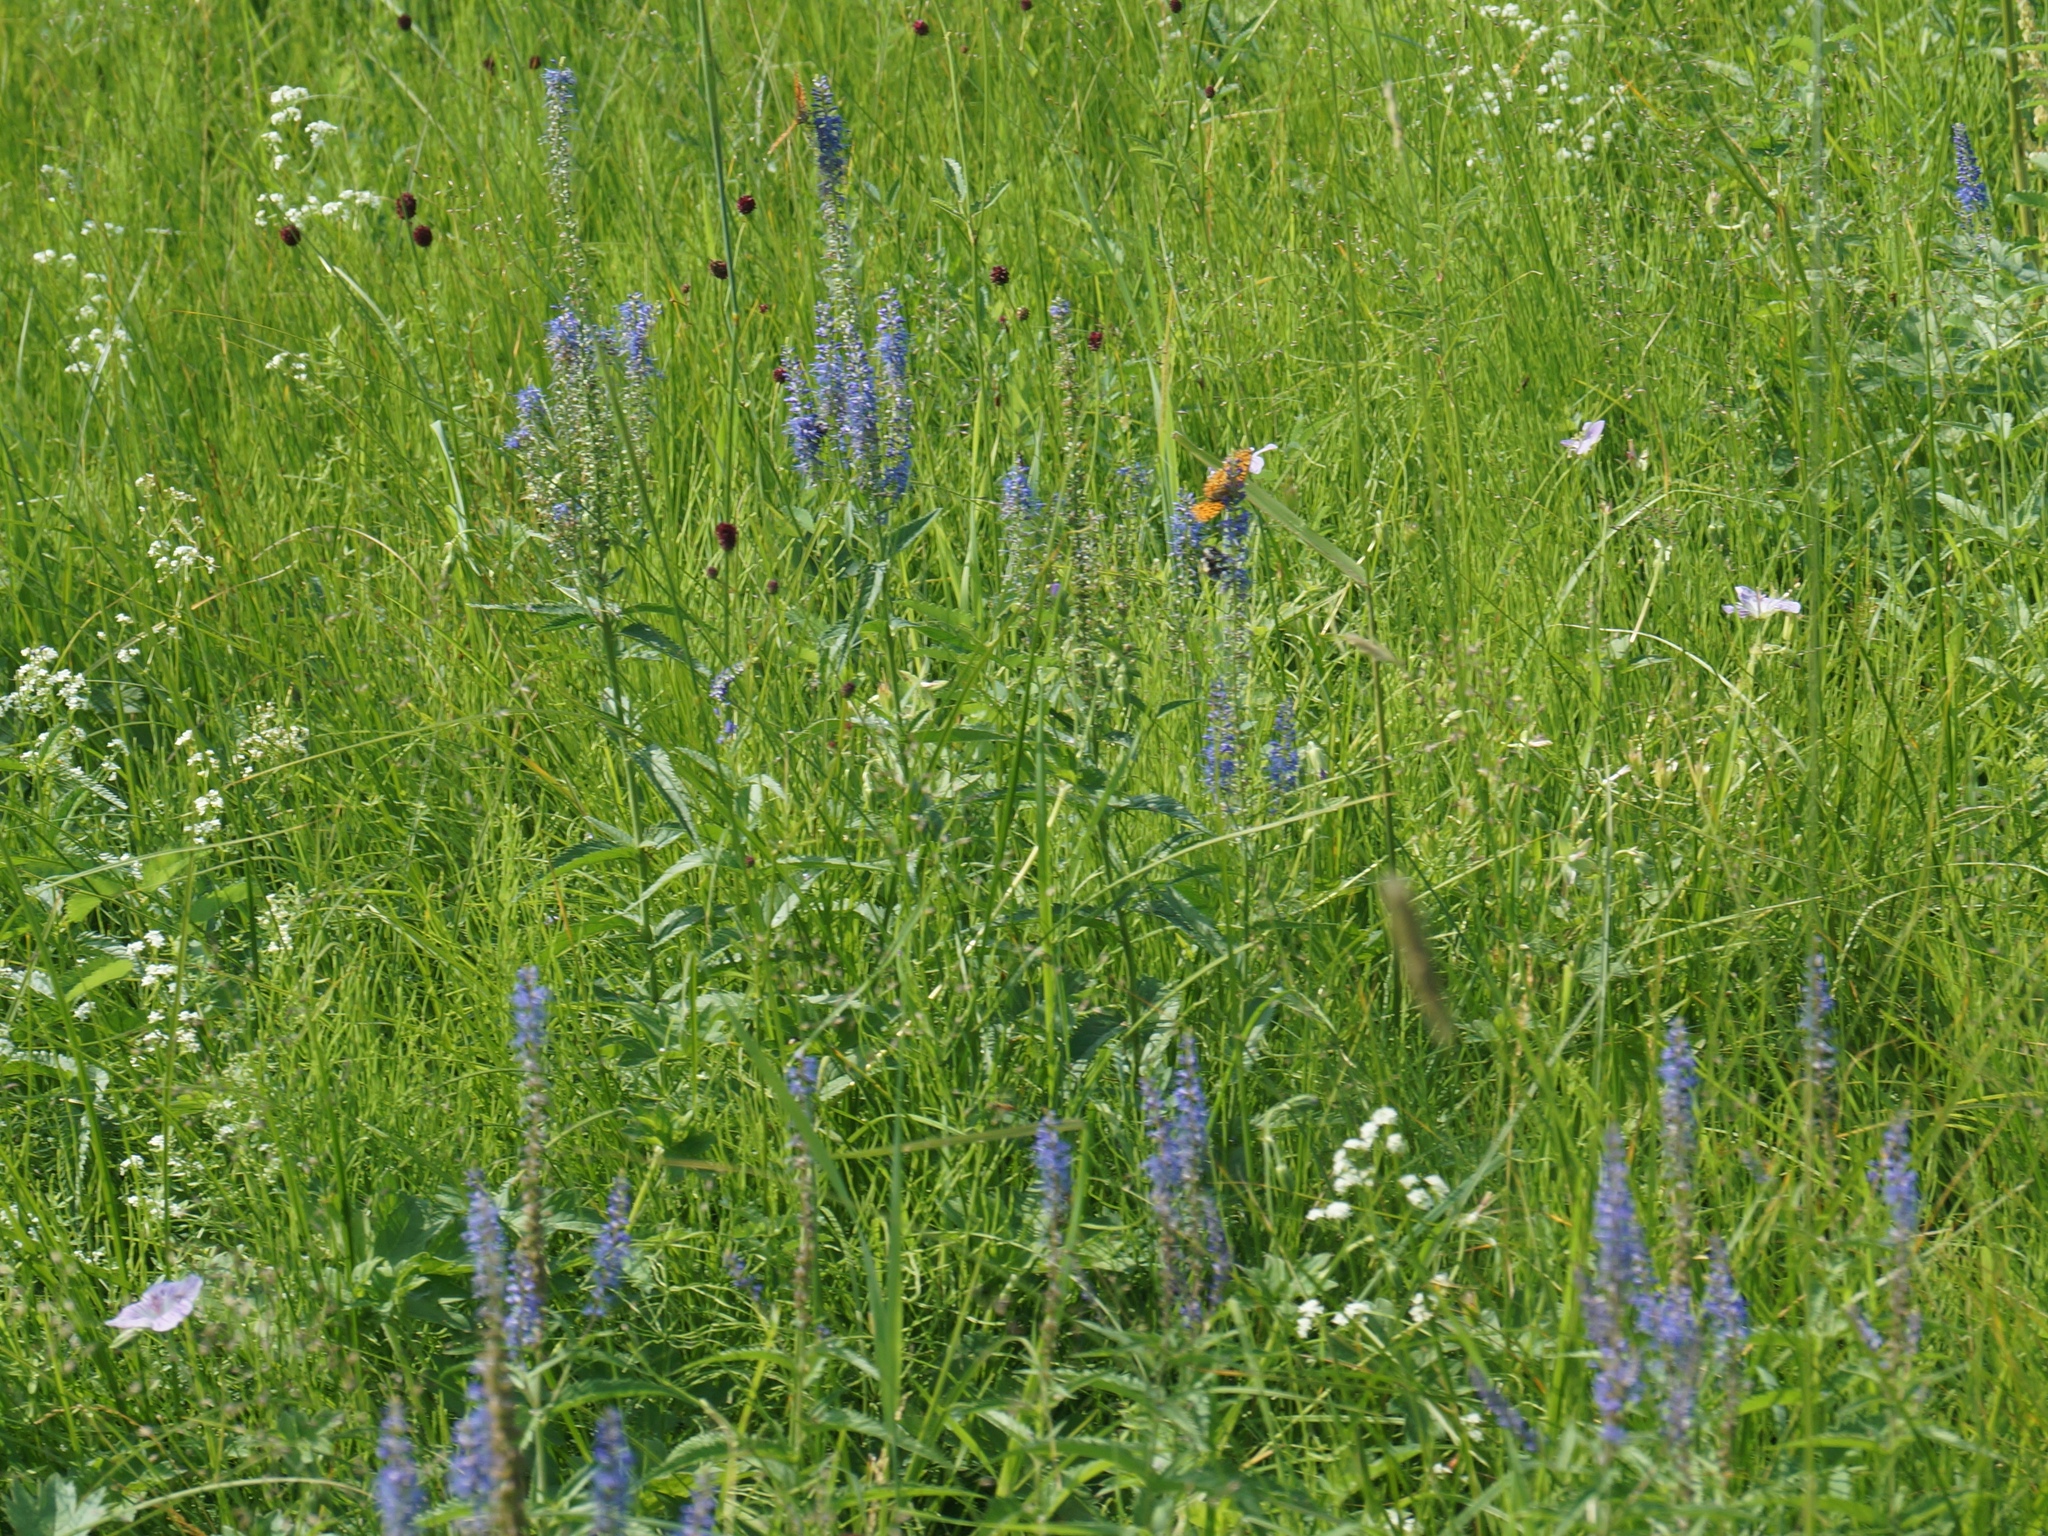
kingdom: Plantae
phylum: Tracheophyta
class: Magnoliopsida
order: Lamiales
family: Plantaginaceae
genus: Veronica
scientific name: Veronica longifolia
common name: Garden speedwell
